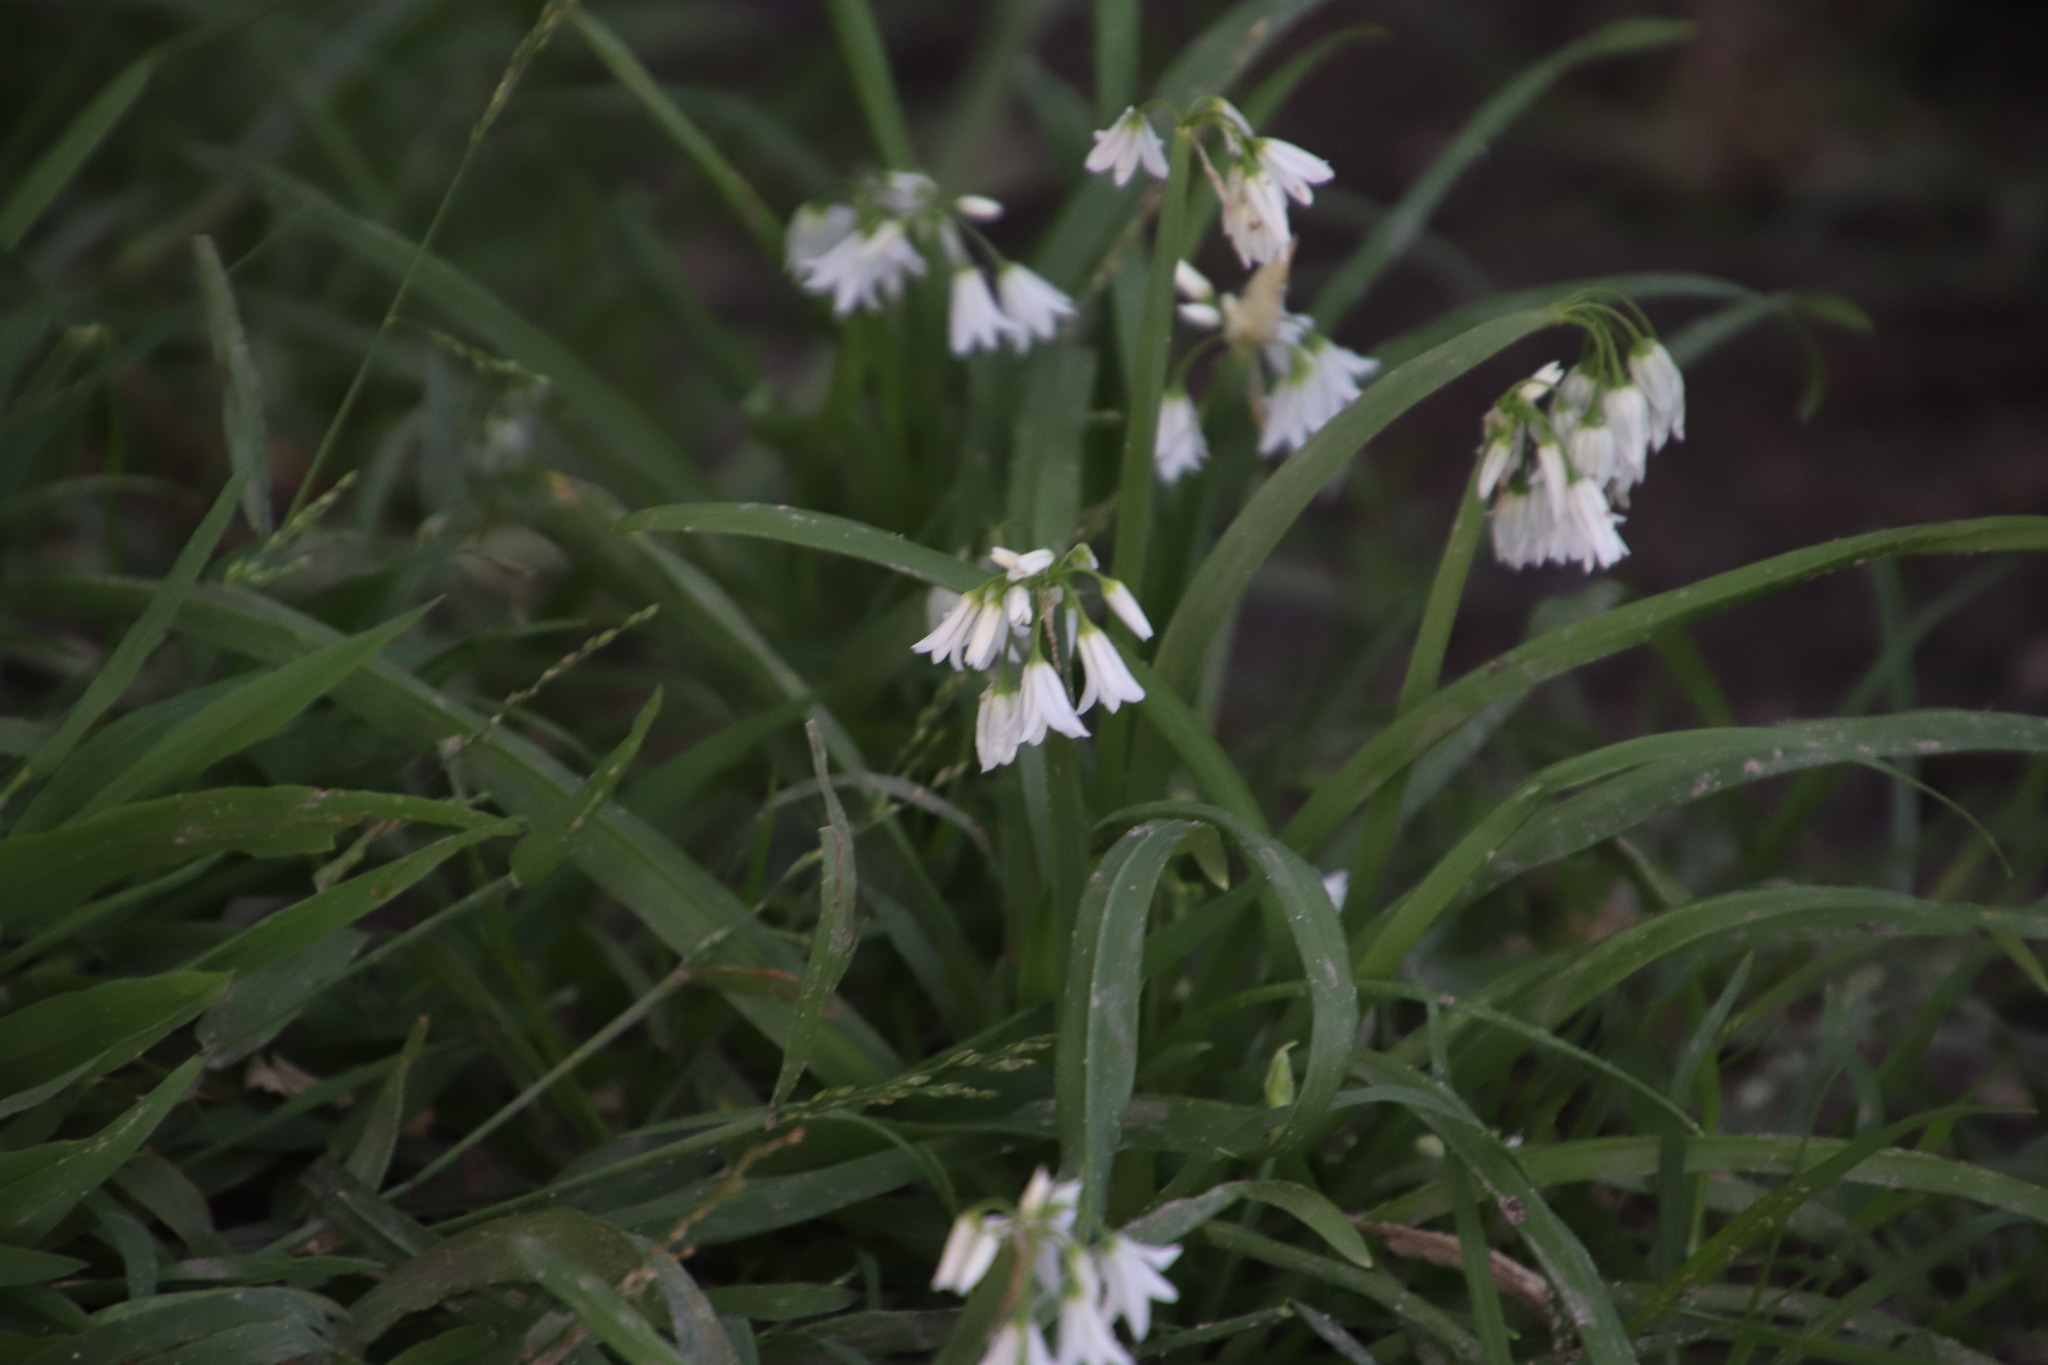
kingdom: Plantae
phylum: Tracheophyta
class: Liliopsida
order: Asparagales
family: Amaryllidaceae
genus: Allium
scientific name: Allium triquetrum
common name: Three-cornered garlic
